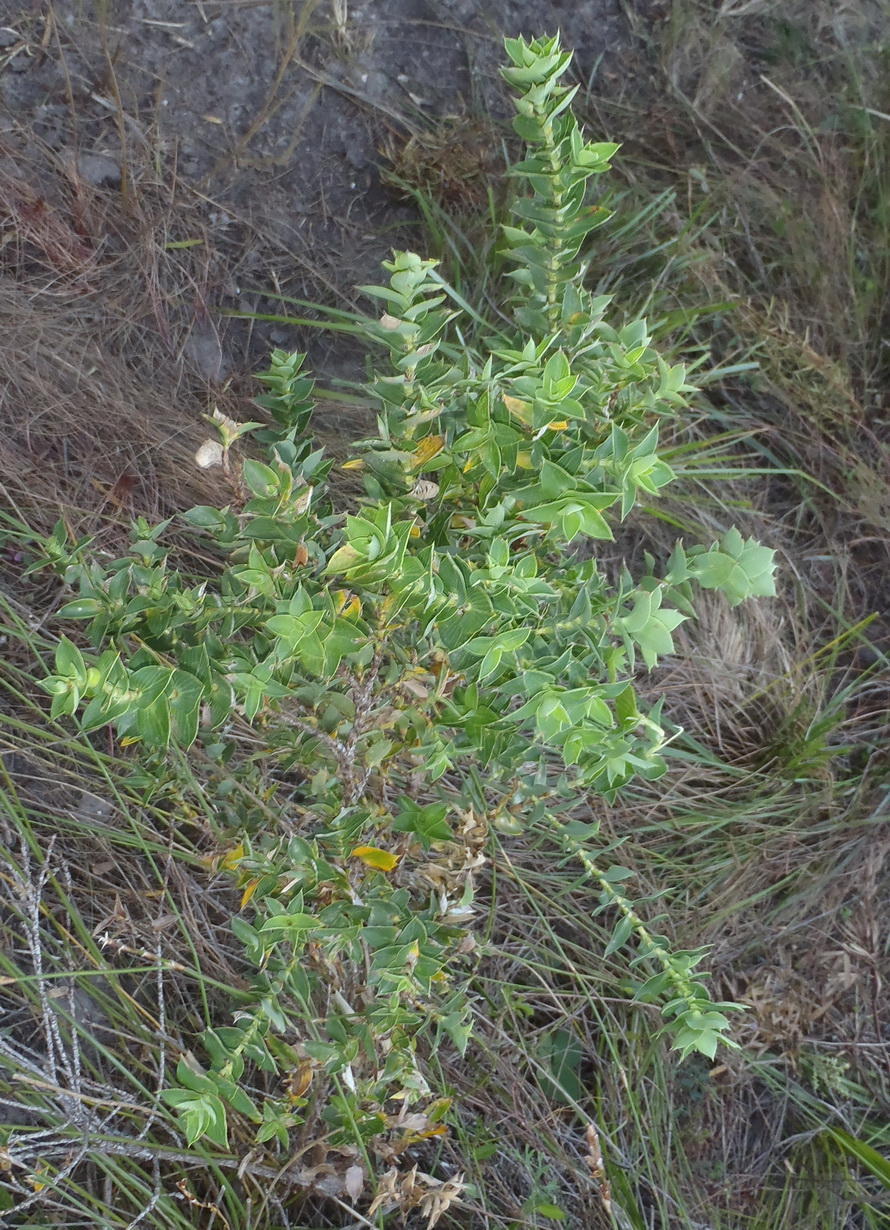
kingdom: Plantae
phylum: Tracheophyta
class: Magnoliopsida
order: Rosales
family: Rosaceae
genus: Cliffortia
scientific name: Cliffortia ilicifolia
